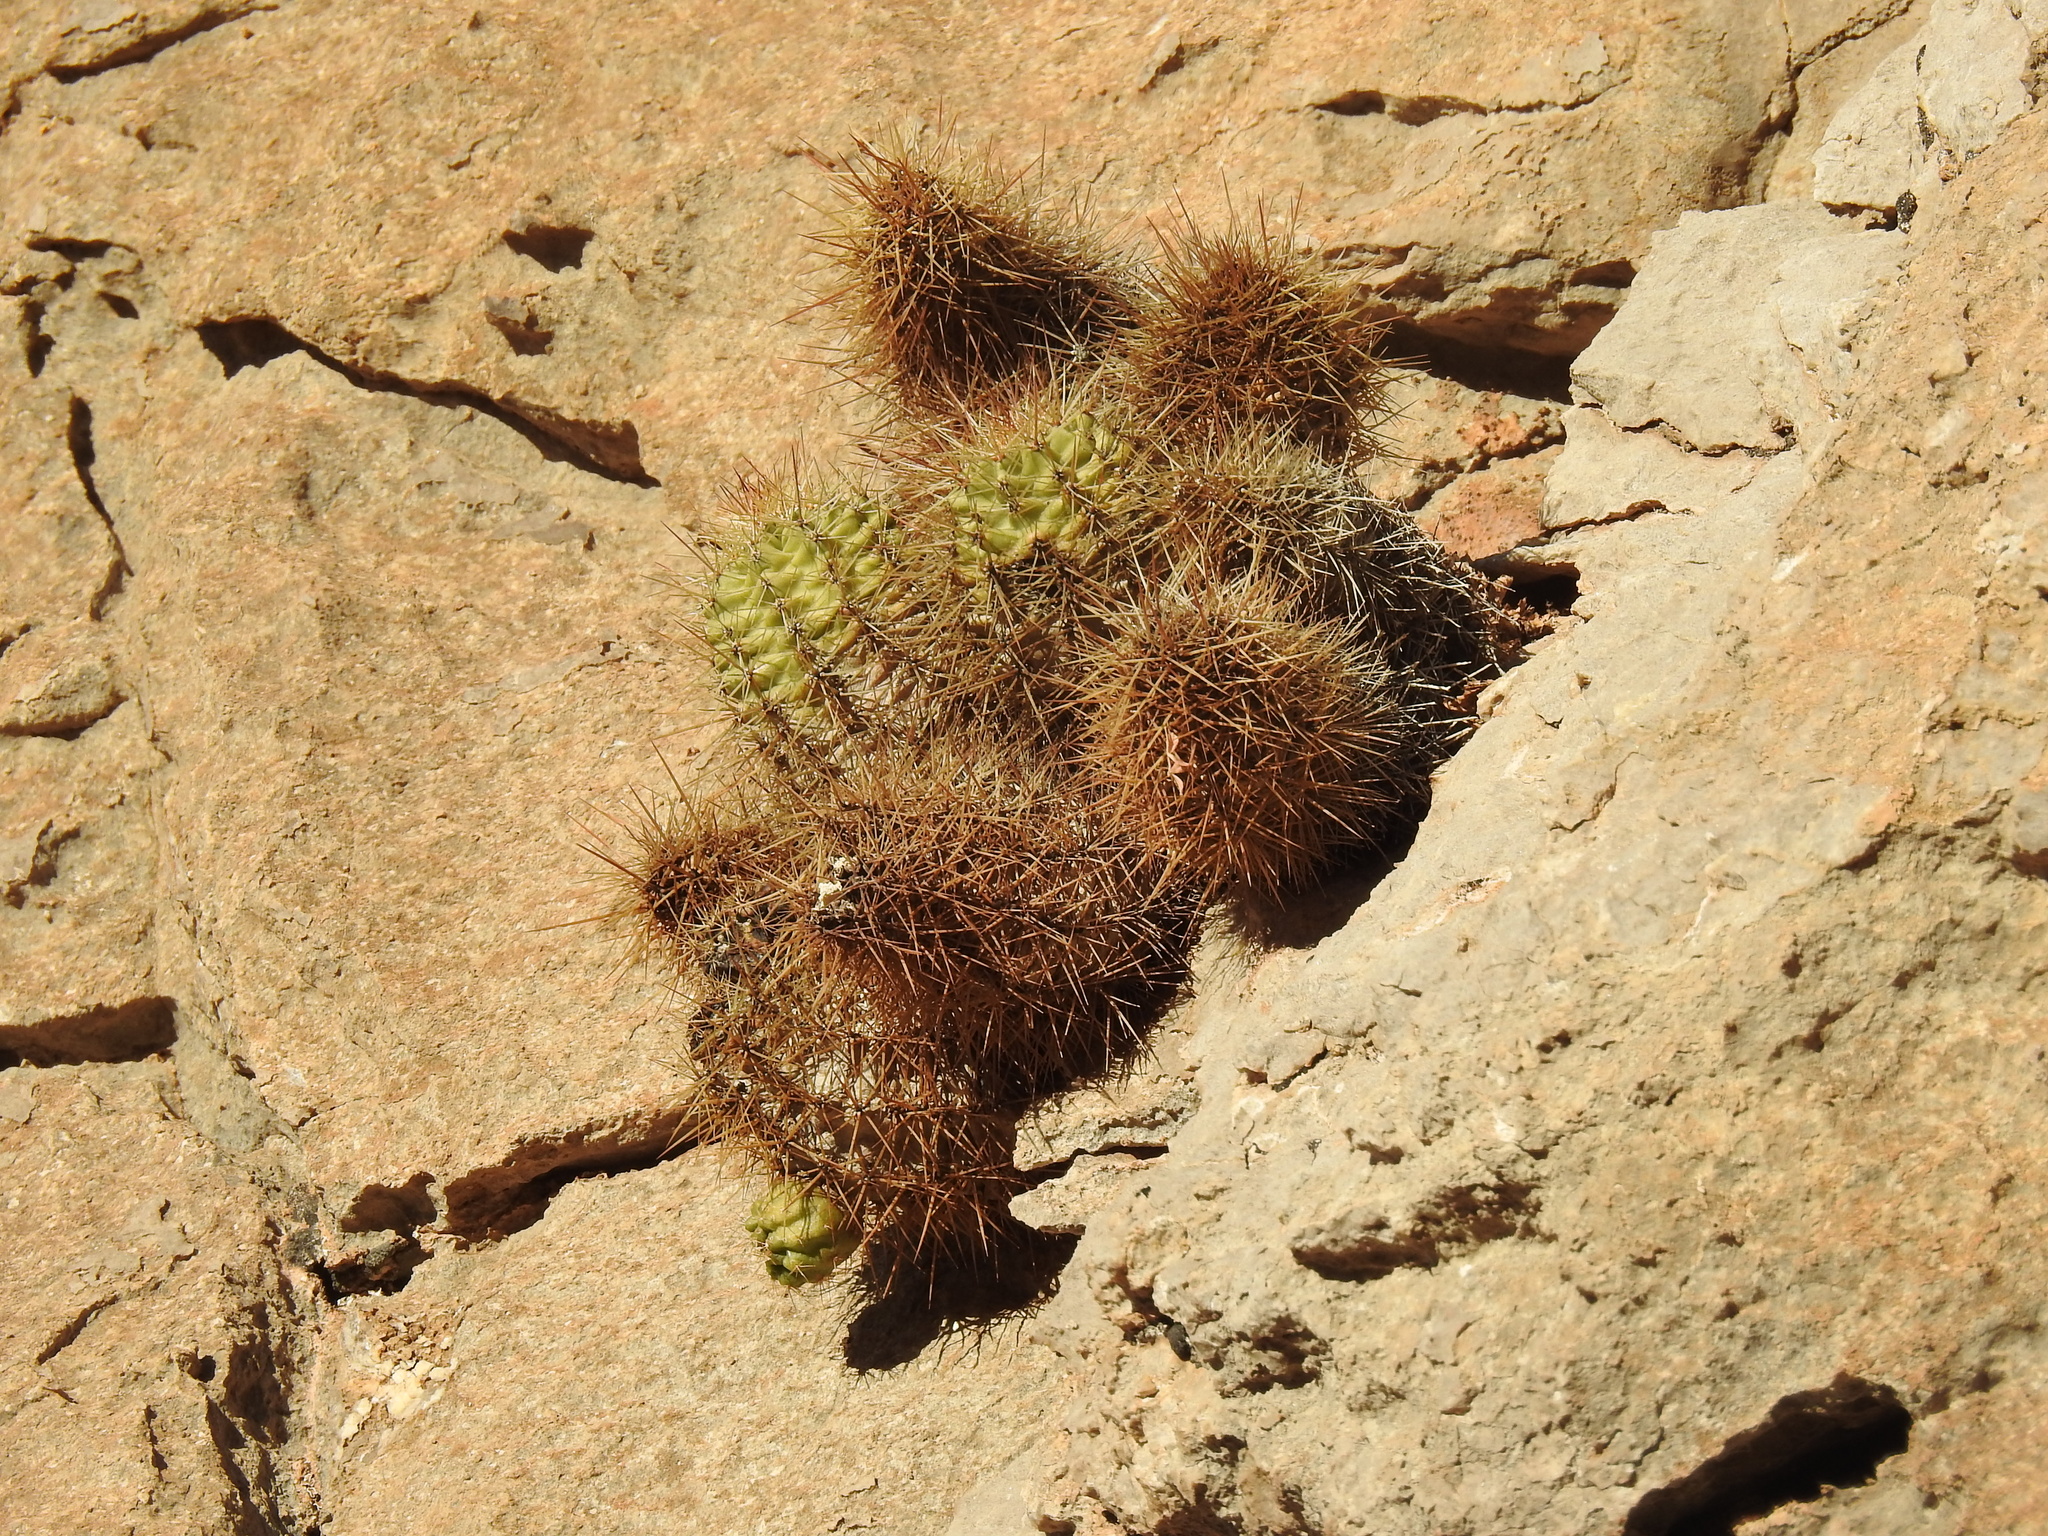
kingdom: Plantae
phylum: Tracheophyta
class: Magnoliopsida
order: Caryophyllales
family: Cactaceae
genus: Echinocereus
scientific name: Echinocereus coccineus
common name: Scarlet hedgehog cactus
